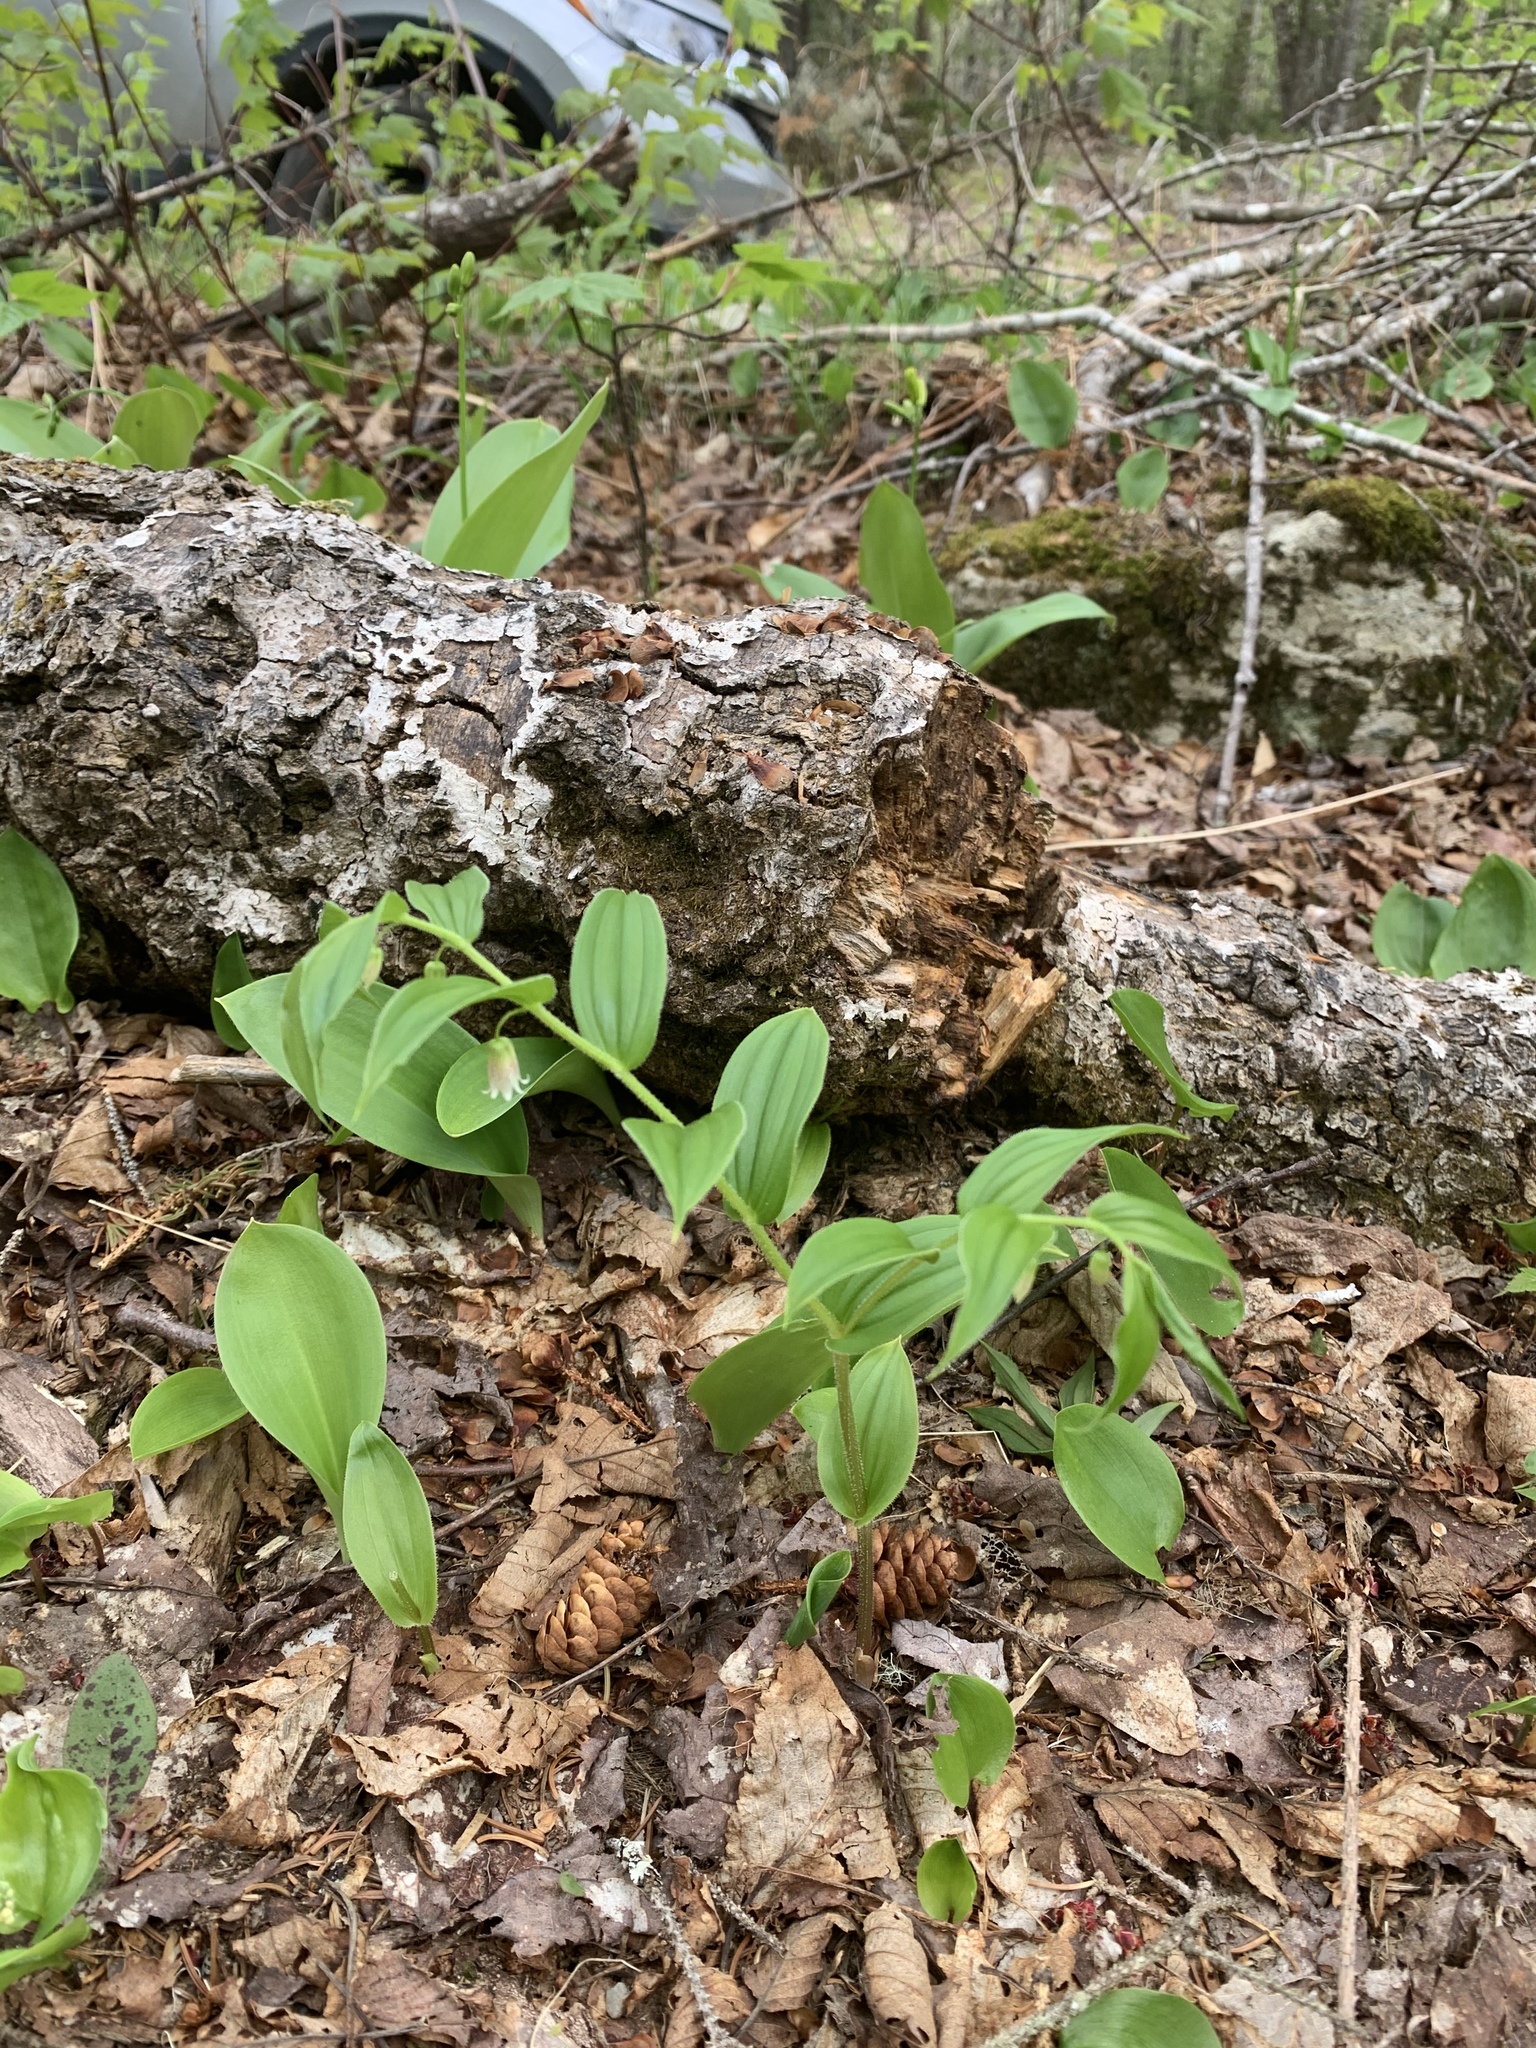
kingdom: Plantae
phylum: Tracheophyta
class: Liliopsida
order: Liliales
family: Liliaceae
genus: Streptopus
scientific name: Streptopus lanceolatus
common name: Rose mandarin
